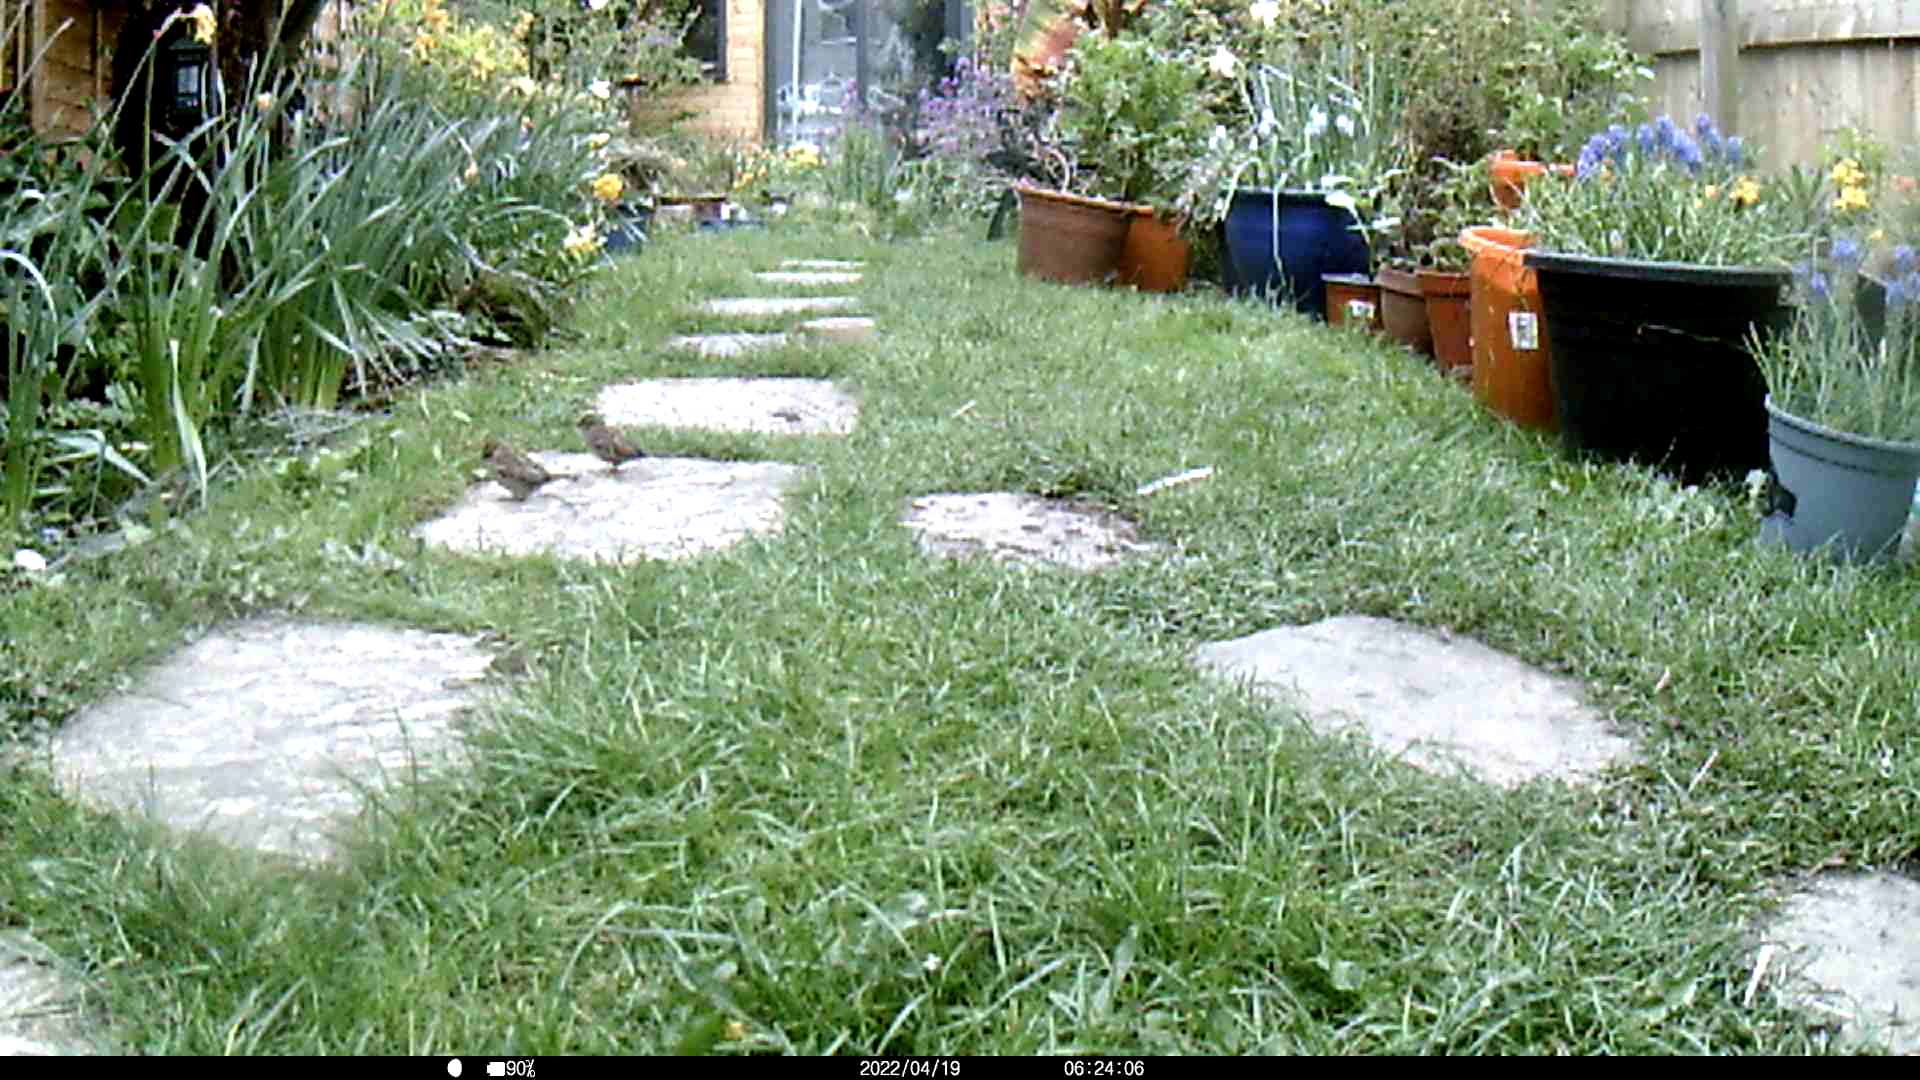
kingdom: Animalia
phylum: Chordata
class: Aves
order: Passeriformes
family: Passeridae
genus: Passer
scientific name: Passer domesticus
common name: House sparrow
